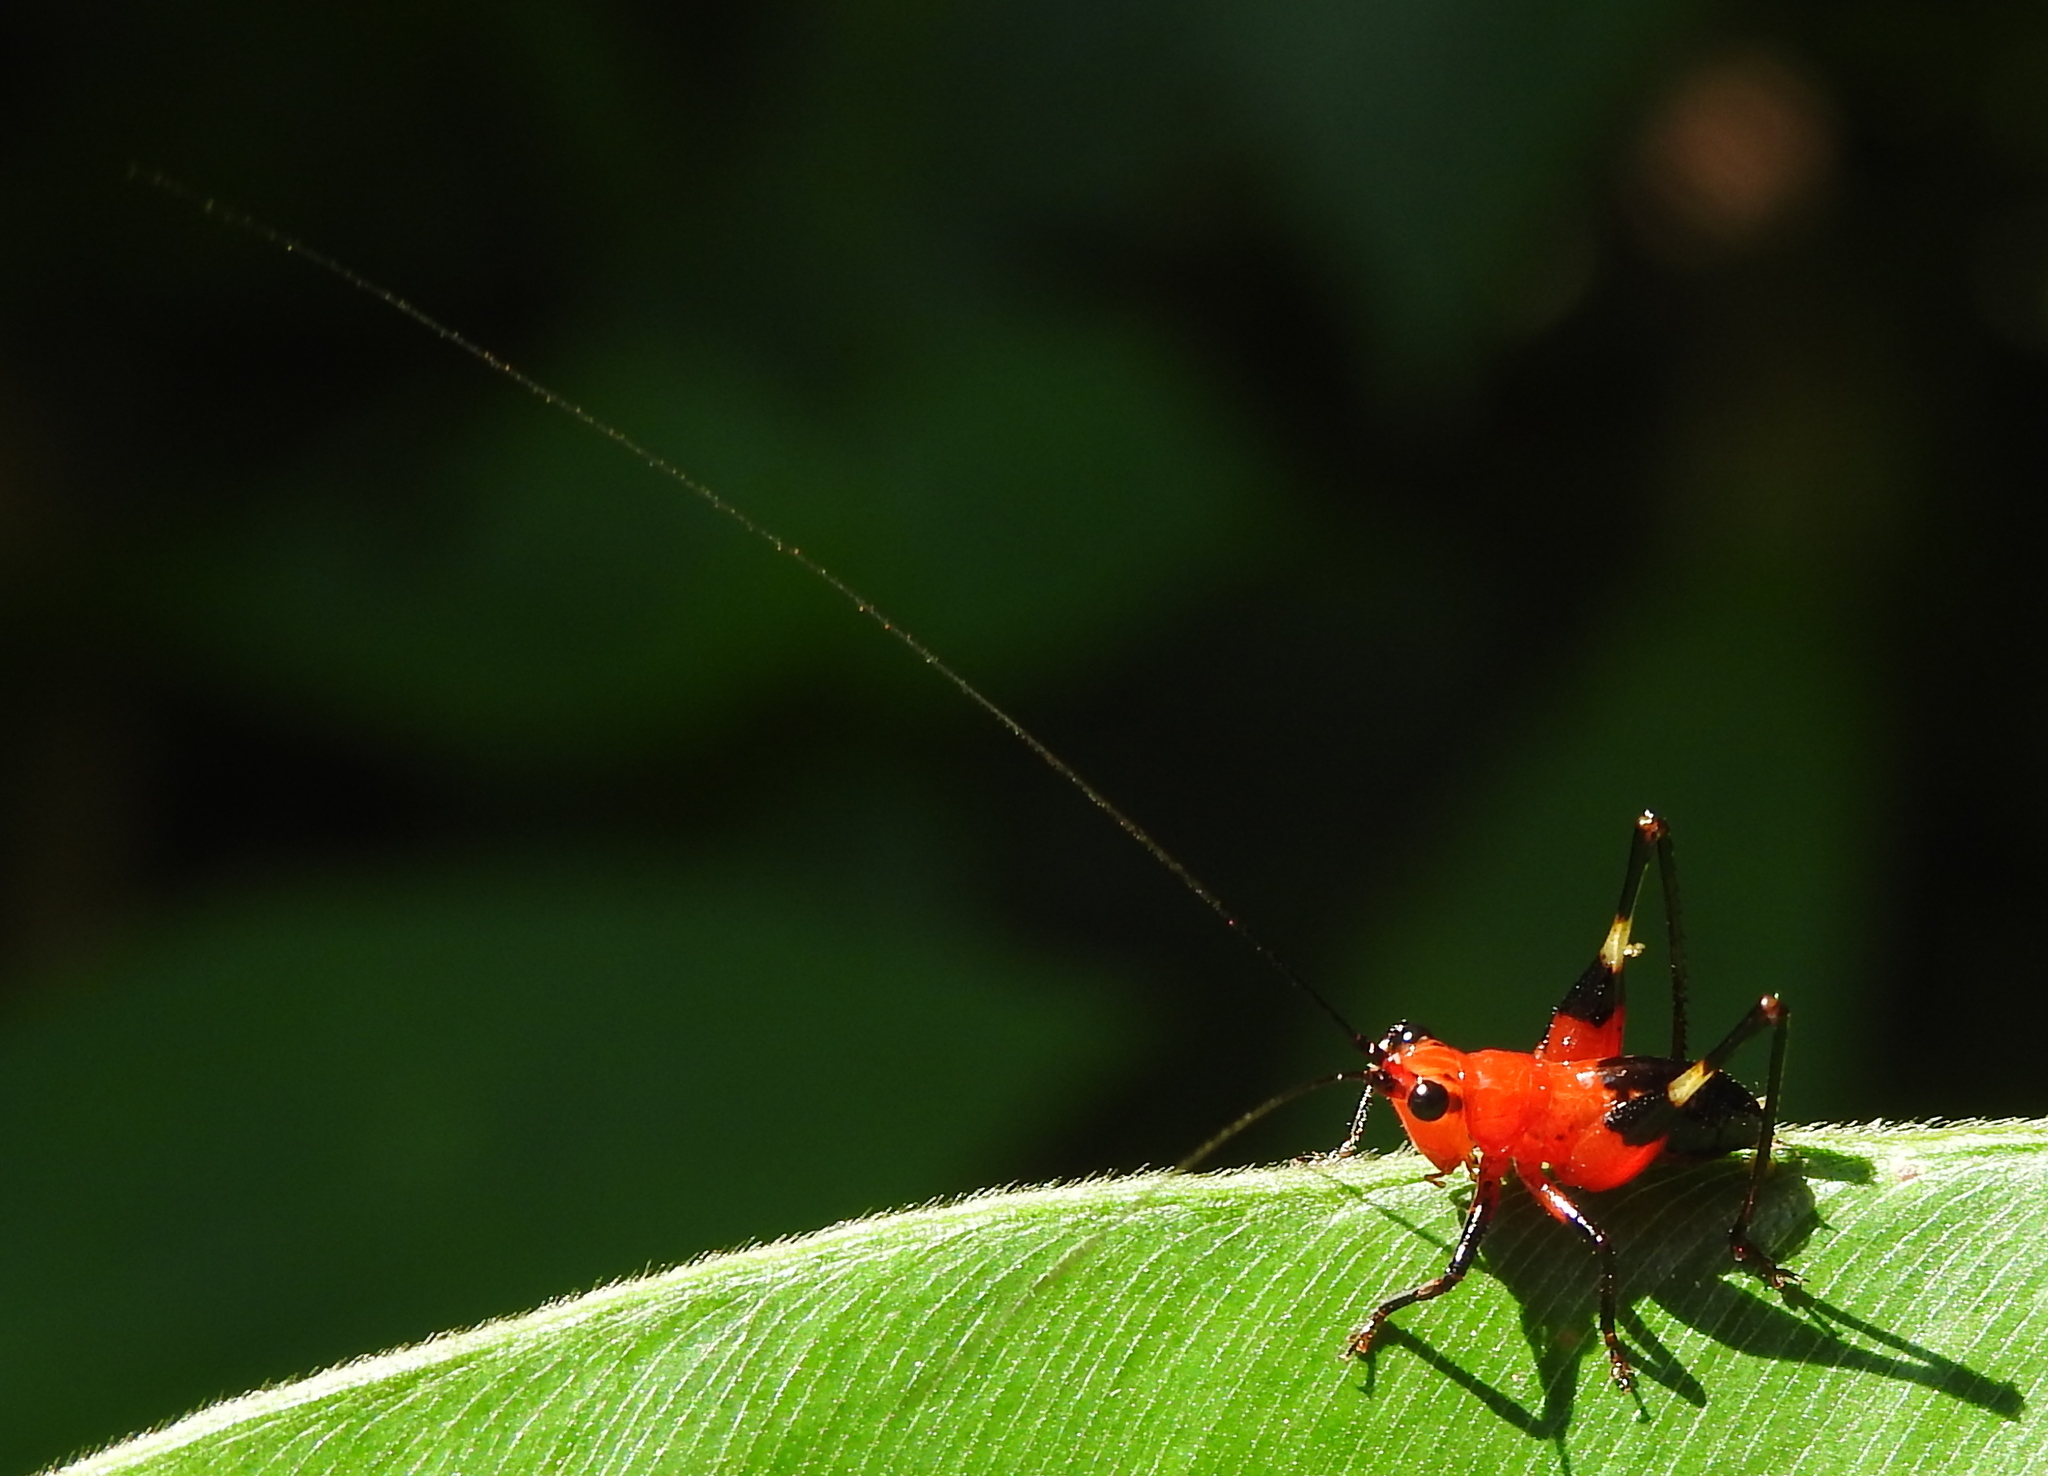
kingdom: Animalia
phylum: Arthropoda
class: Insecta
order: Orthoptera
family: Tettigoniidae
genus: Conocephalus
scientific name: Conocephalus melaenus
